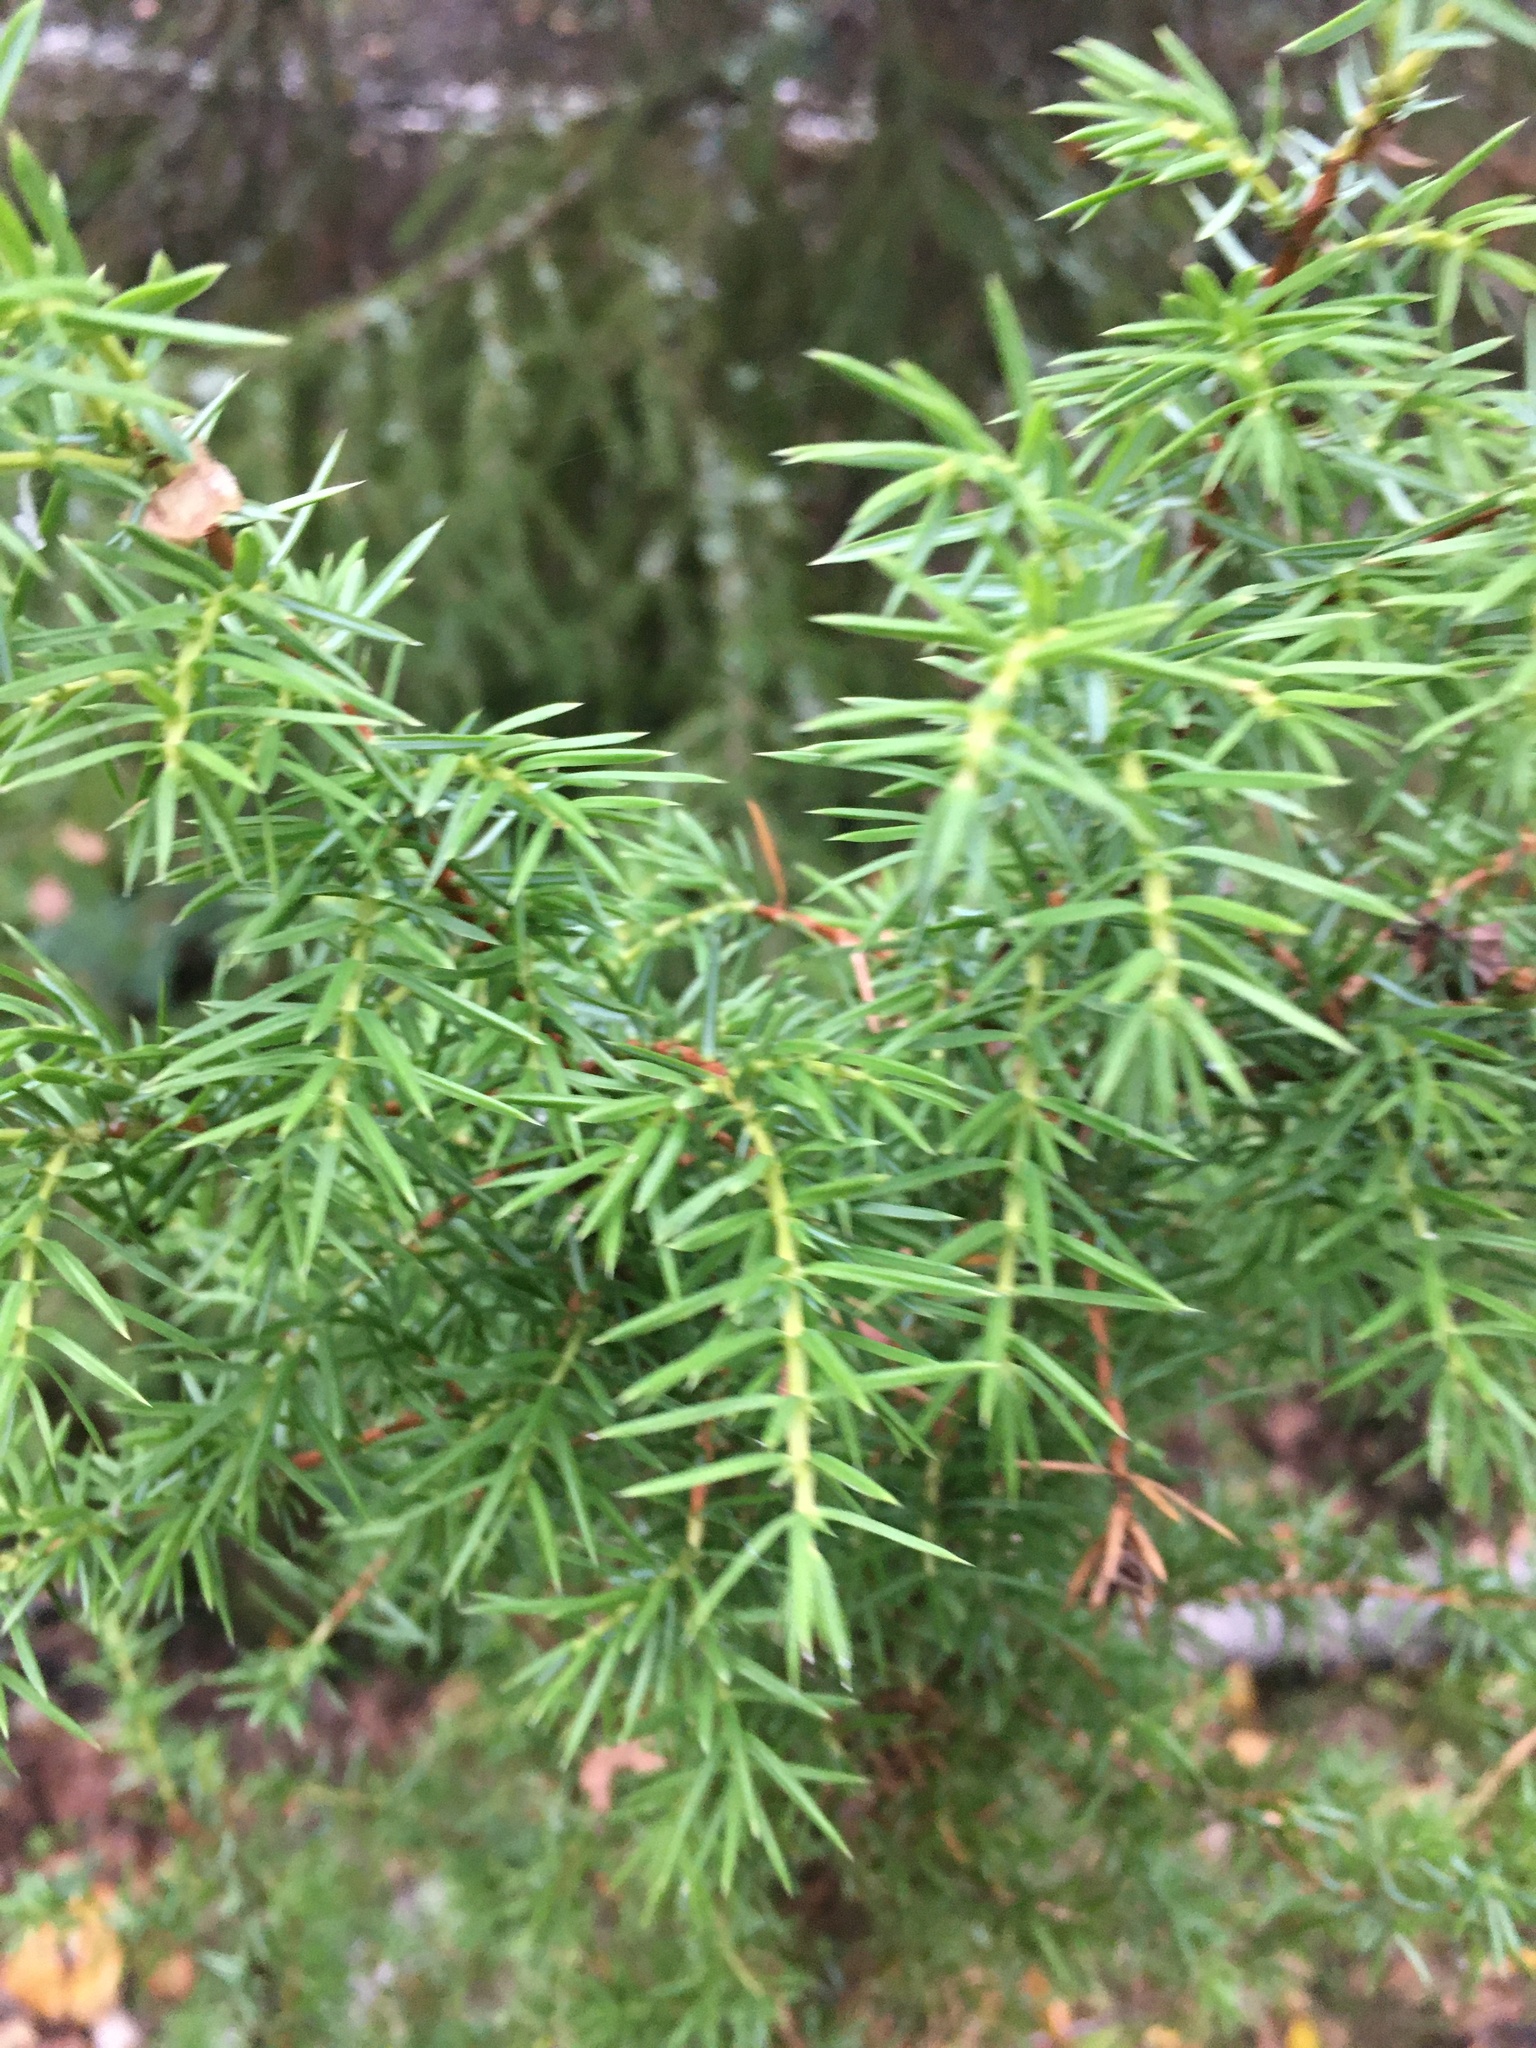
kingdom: Plantae
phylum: Tracheophyta
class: Pinopsida
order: Pinales
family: Cupressaceae
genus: Juniperus
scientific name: Juniperus communis
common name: Common juniper
